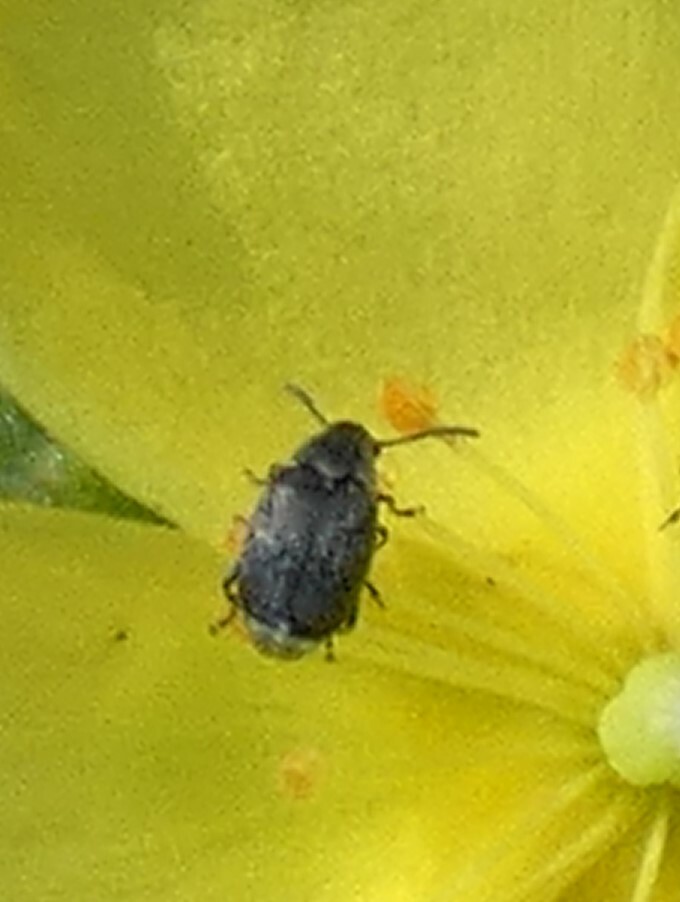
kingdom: Animalia
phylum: Arthropoda
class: Insecta
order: Coleoptera
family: Chrysomelidae
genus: Acanthoscelides
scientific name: Acanthoscelides helianthemum
